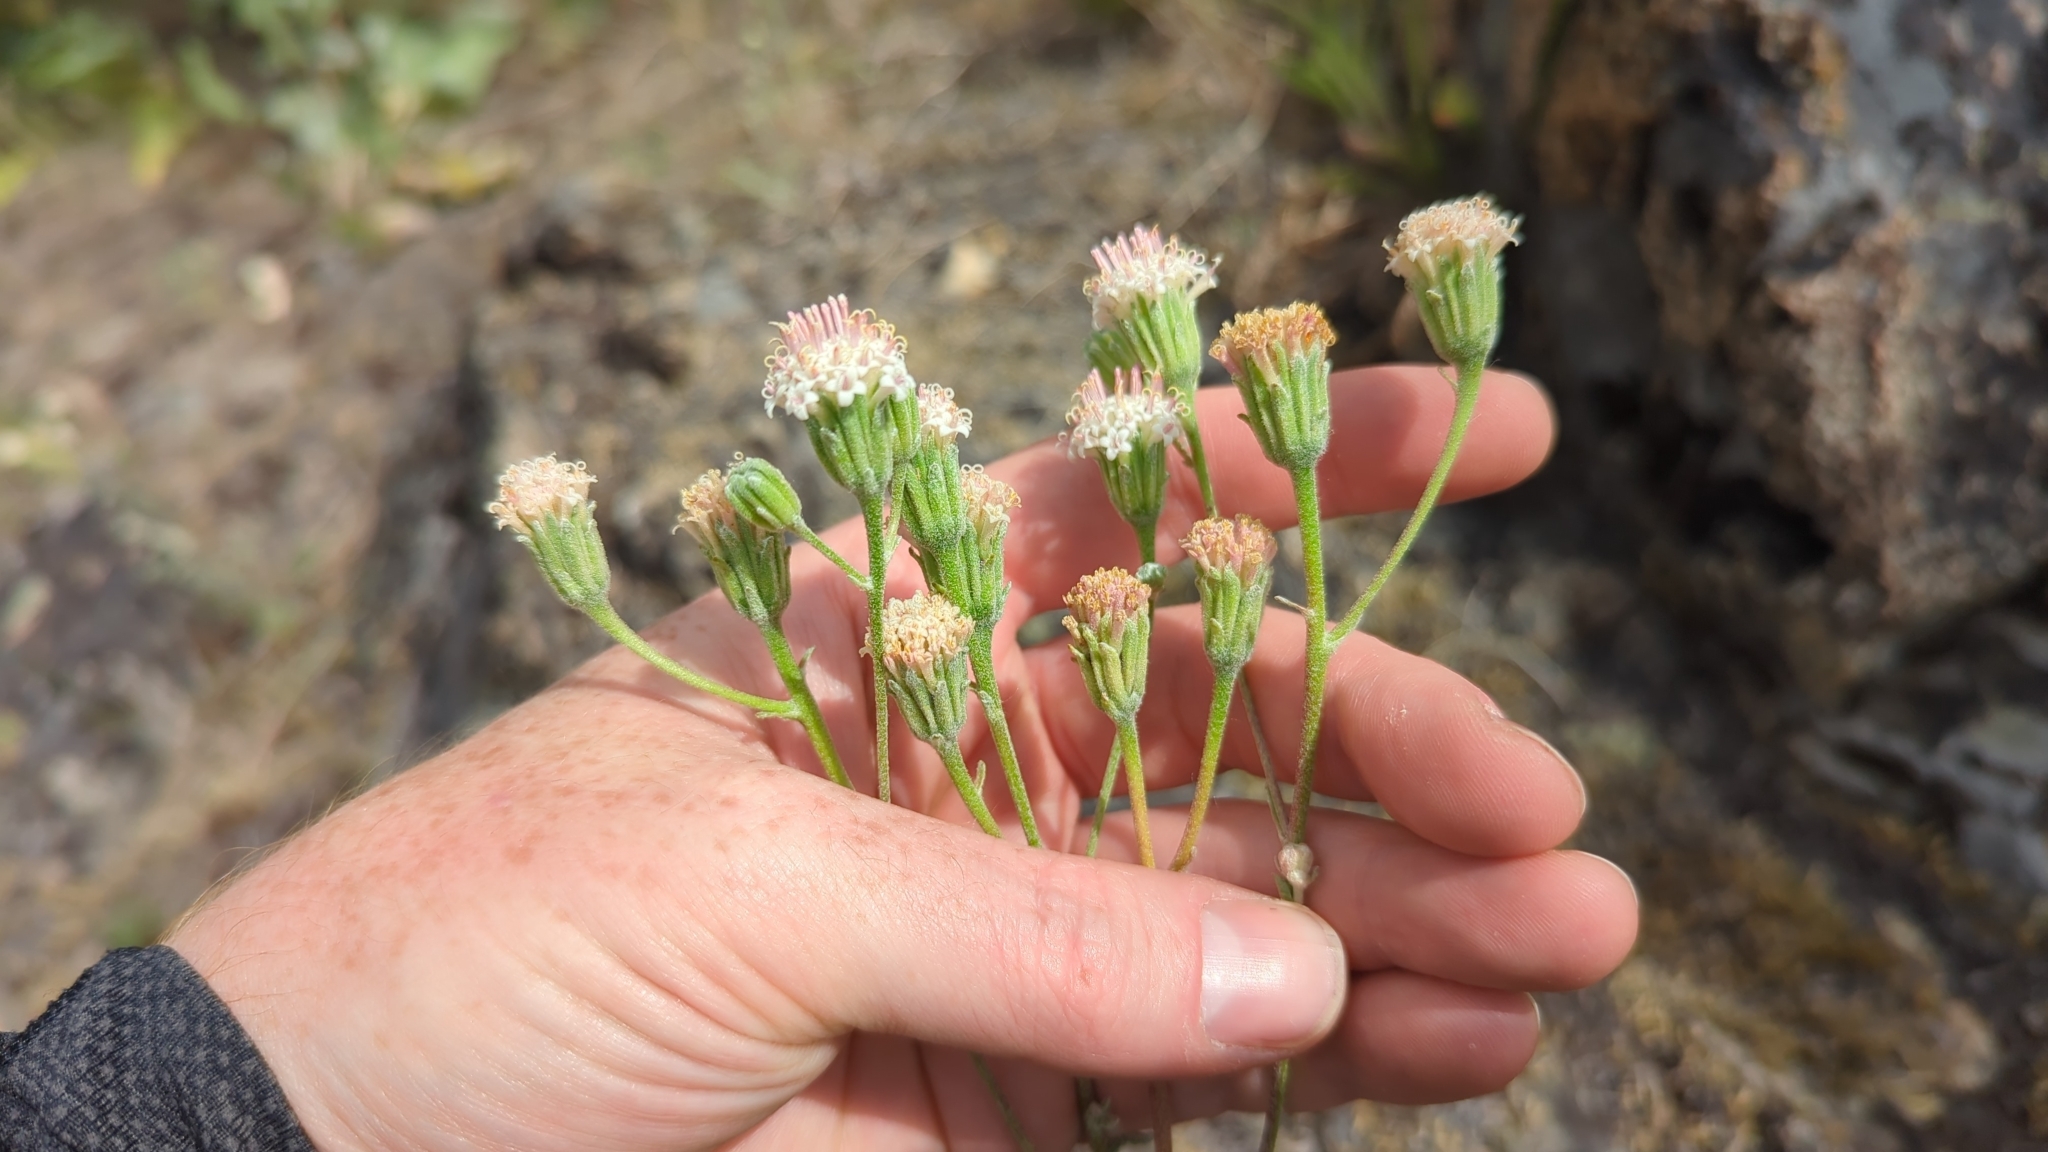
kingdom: Plantae
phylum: Tracheophyta
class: Magnoliopsida
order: Asterales
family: Asteraceae
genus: Chaenactis
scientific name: Chaenactis douglasii
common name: Hoary pincushion
